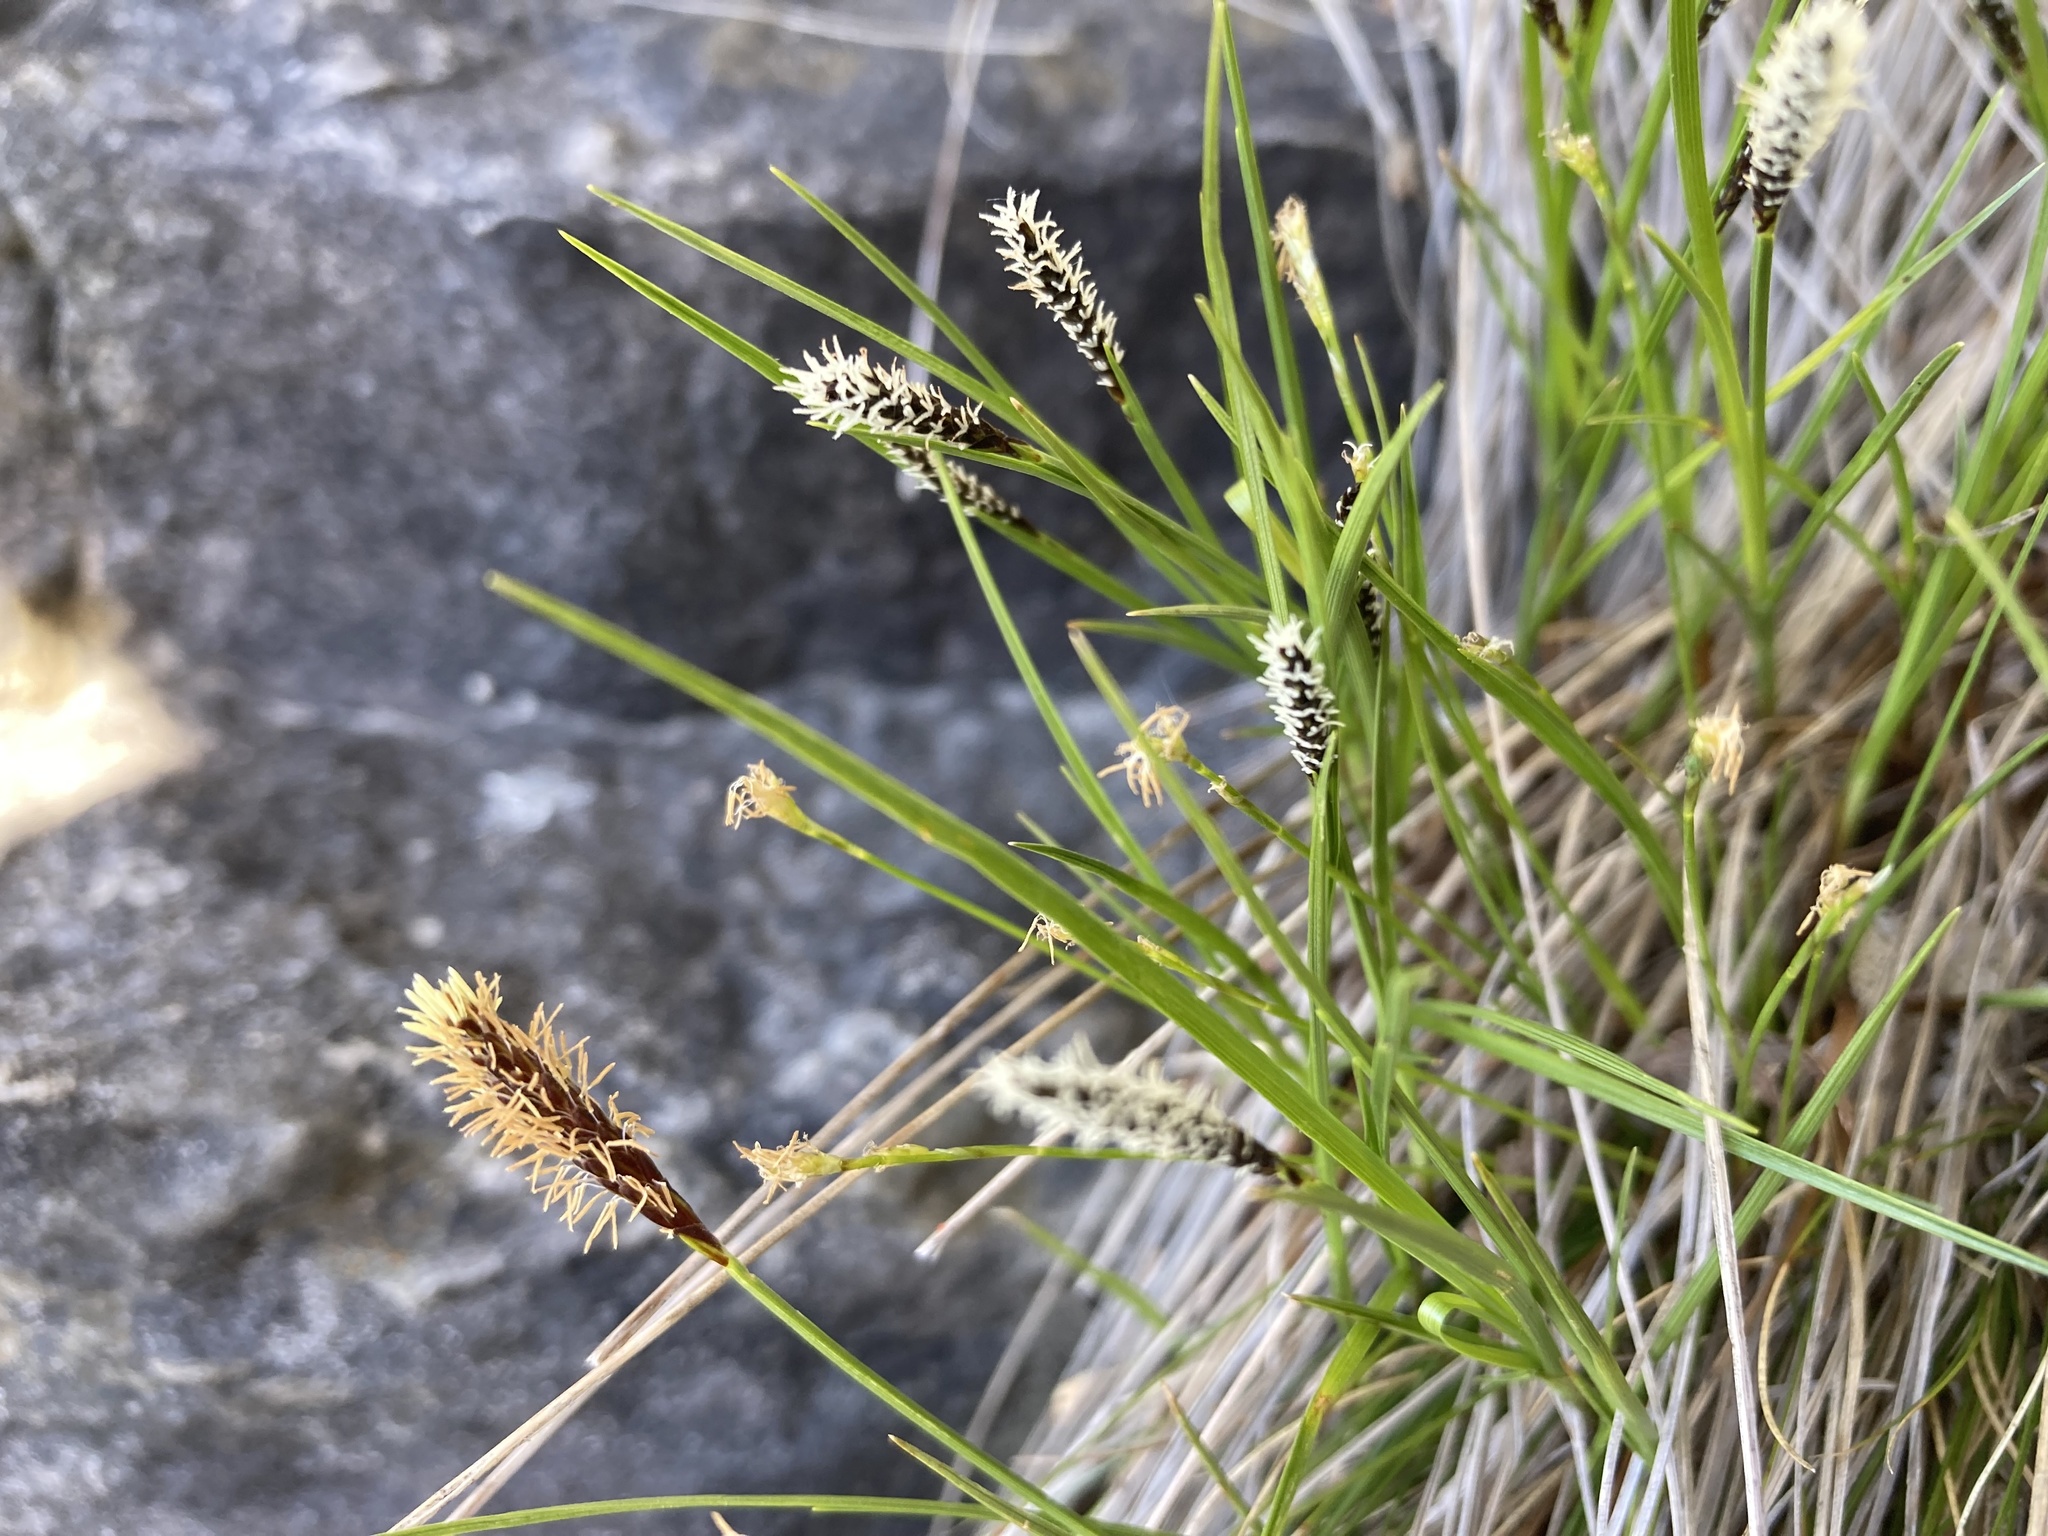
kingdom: Plantae
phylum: Tracheophyta
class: Liliopsida
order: Poales
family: Cyperaceae
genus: Carex
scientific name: Carex scirpoidea
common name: Canada single-spike sedge
